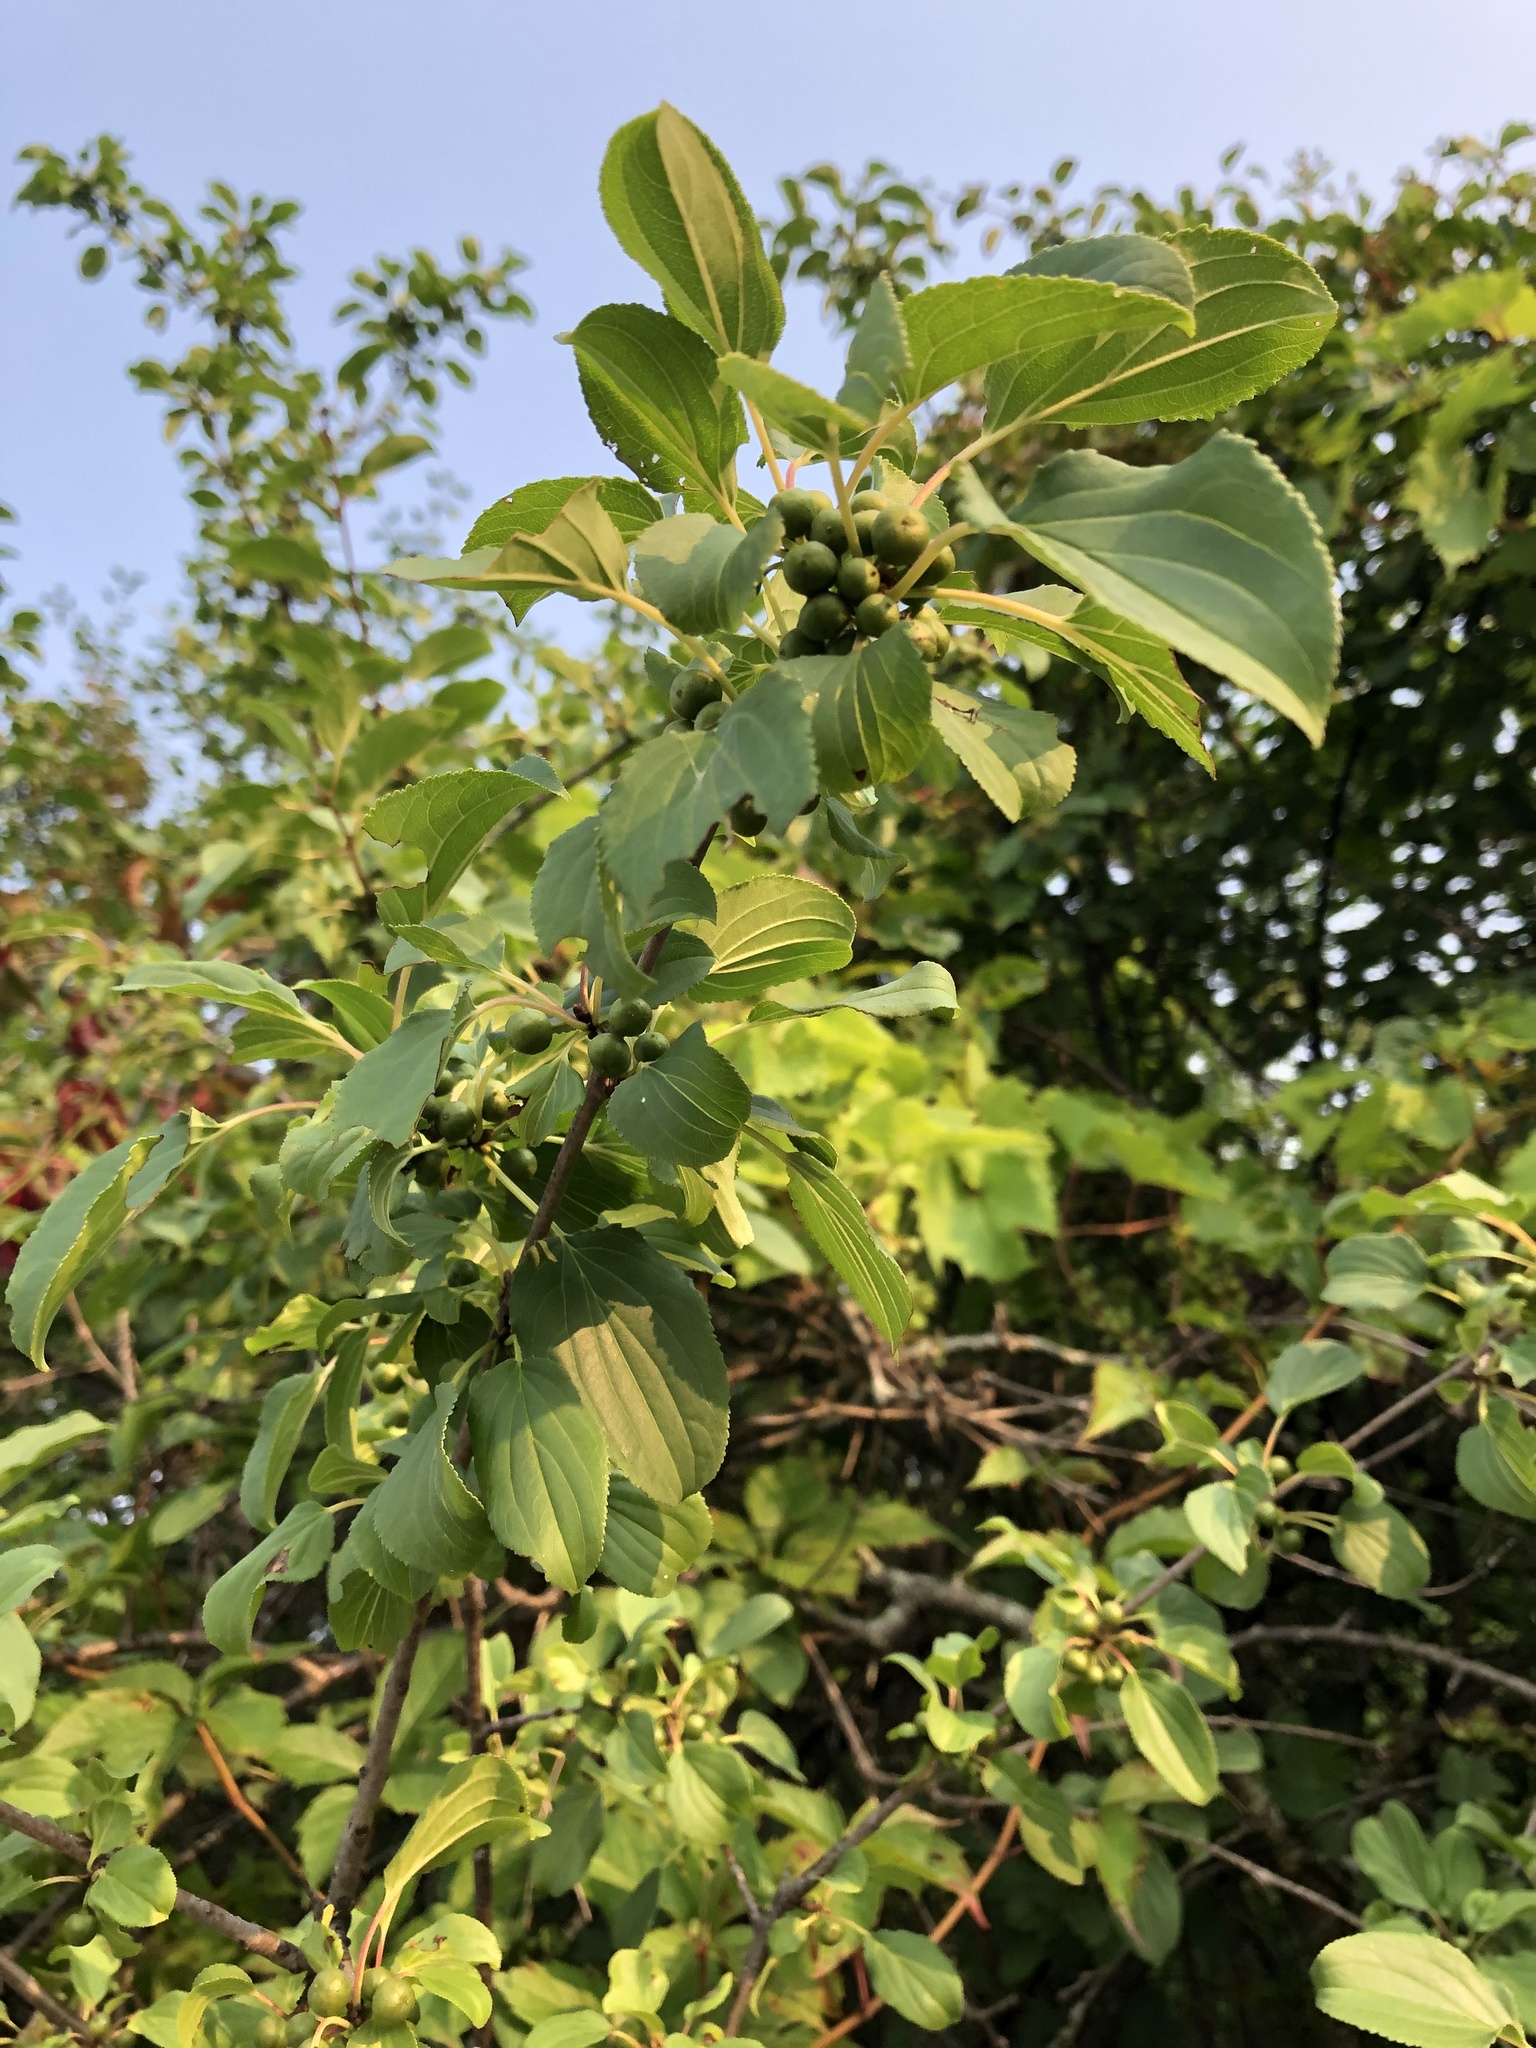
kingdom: Plantae
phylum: Tracheophyta
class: Magnoliopsida
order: Rosales
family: Rhamnaceae
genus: Rhamnus
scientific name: Rhamnus cathartica
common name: Common buckthorn
